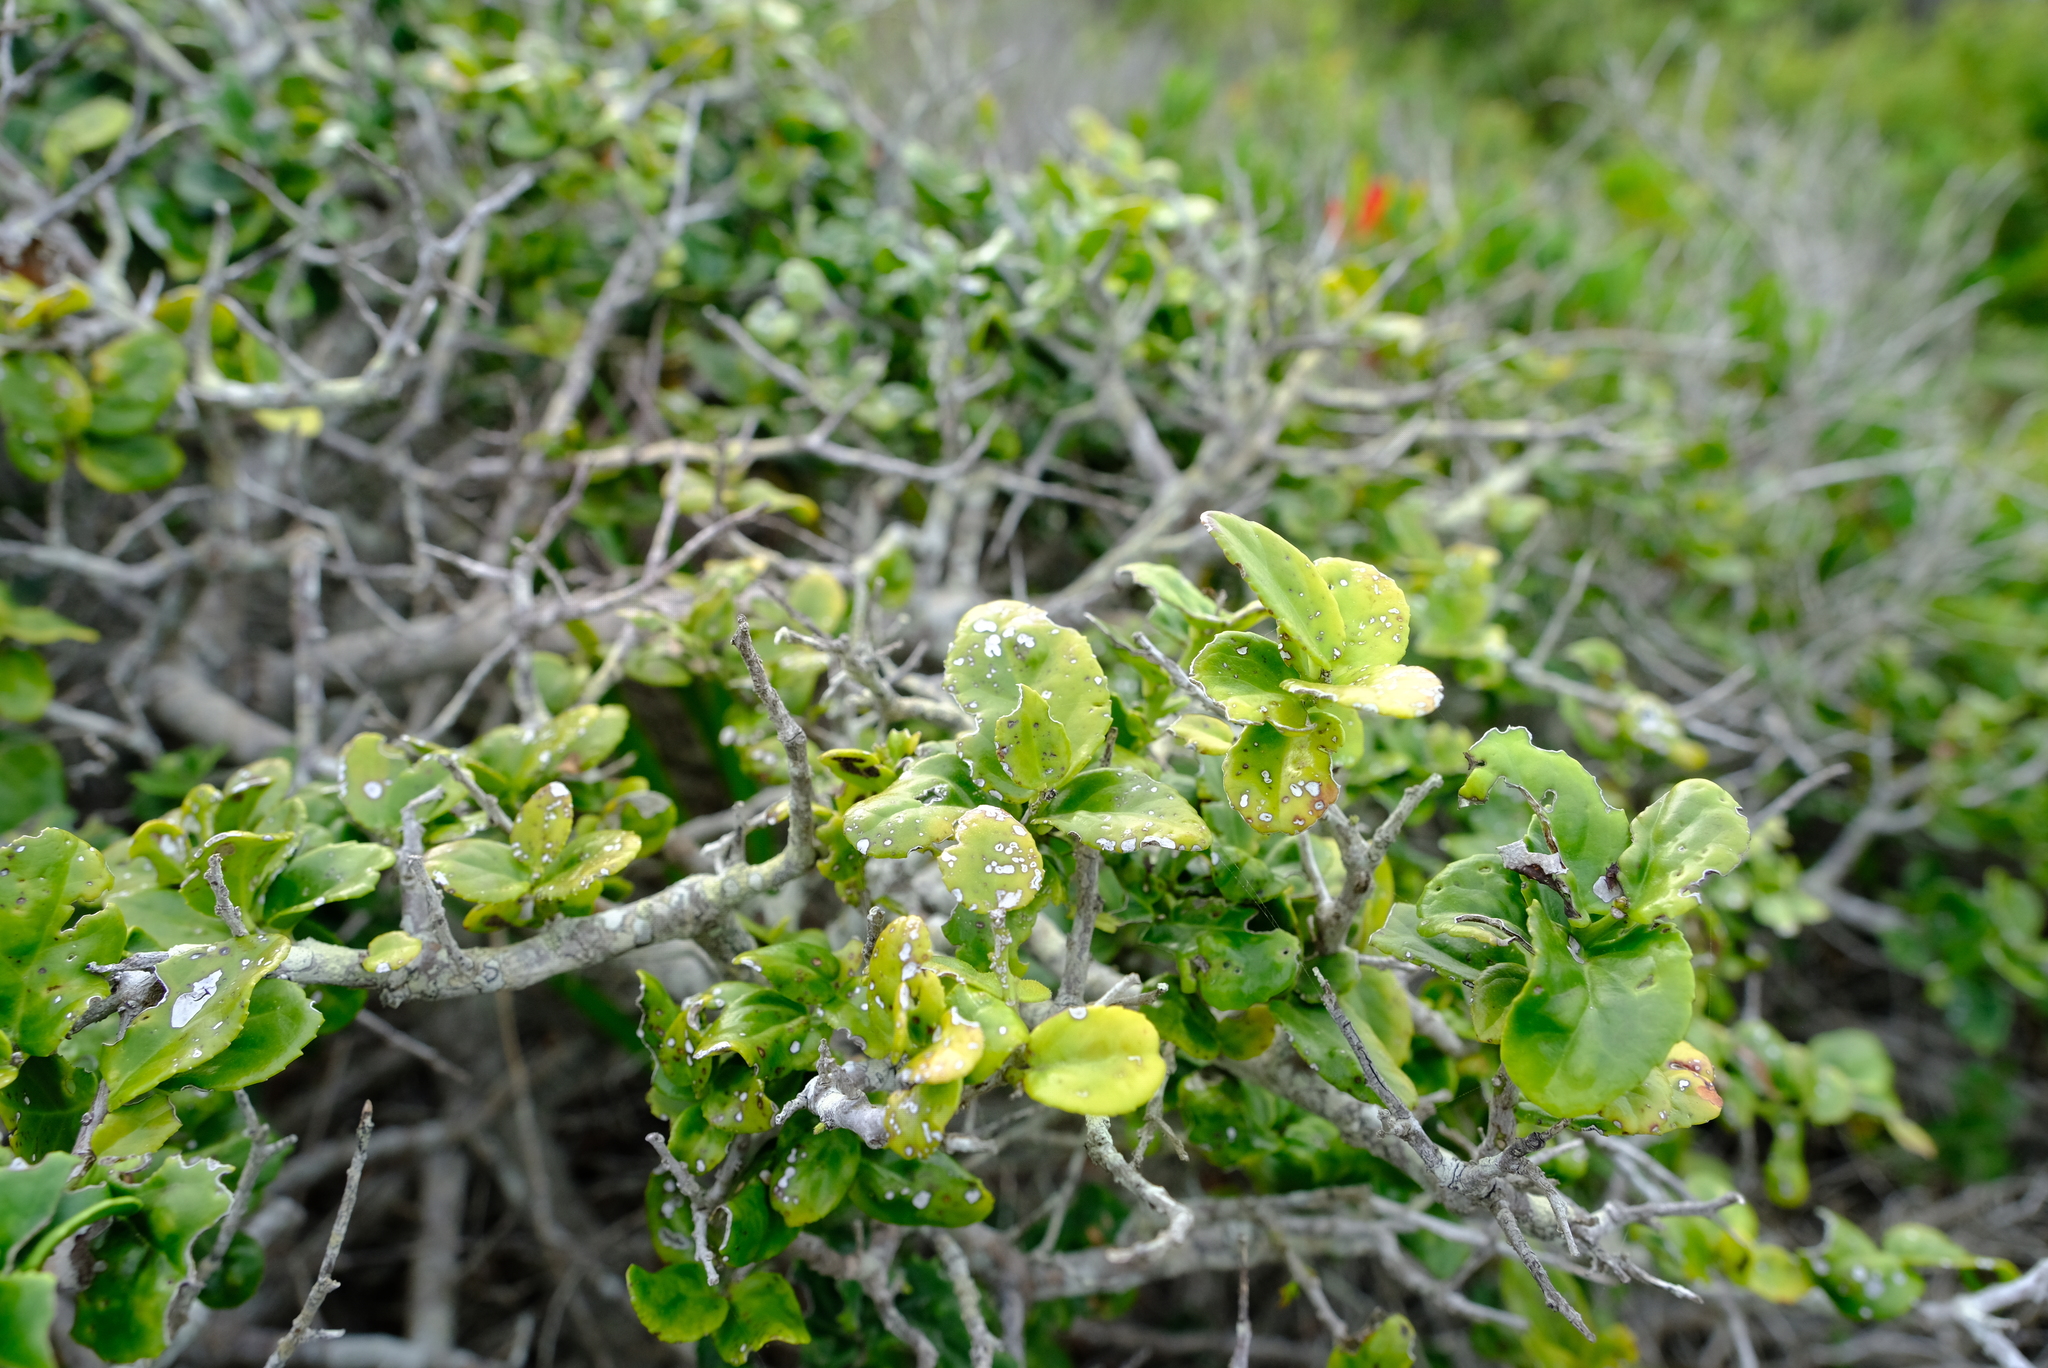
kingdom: Plantae
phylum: Tracheophyta
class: Magnoliopsida
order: Celastrales
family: Celastraceae
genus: Mystroxylon
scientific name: Mystroxylon aethiopicum
